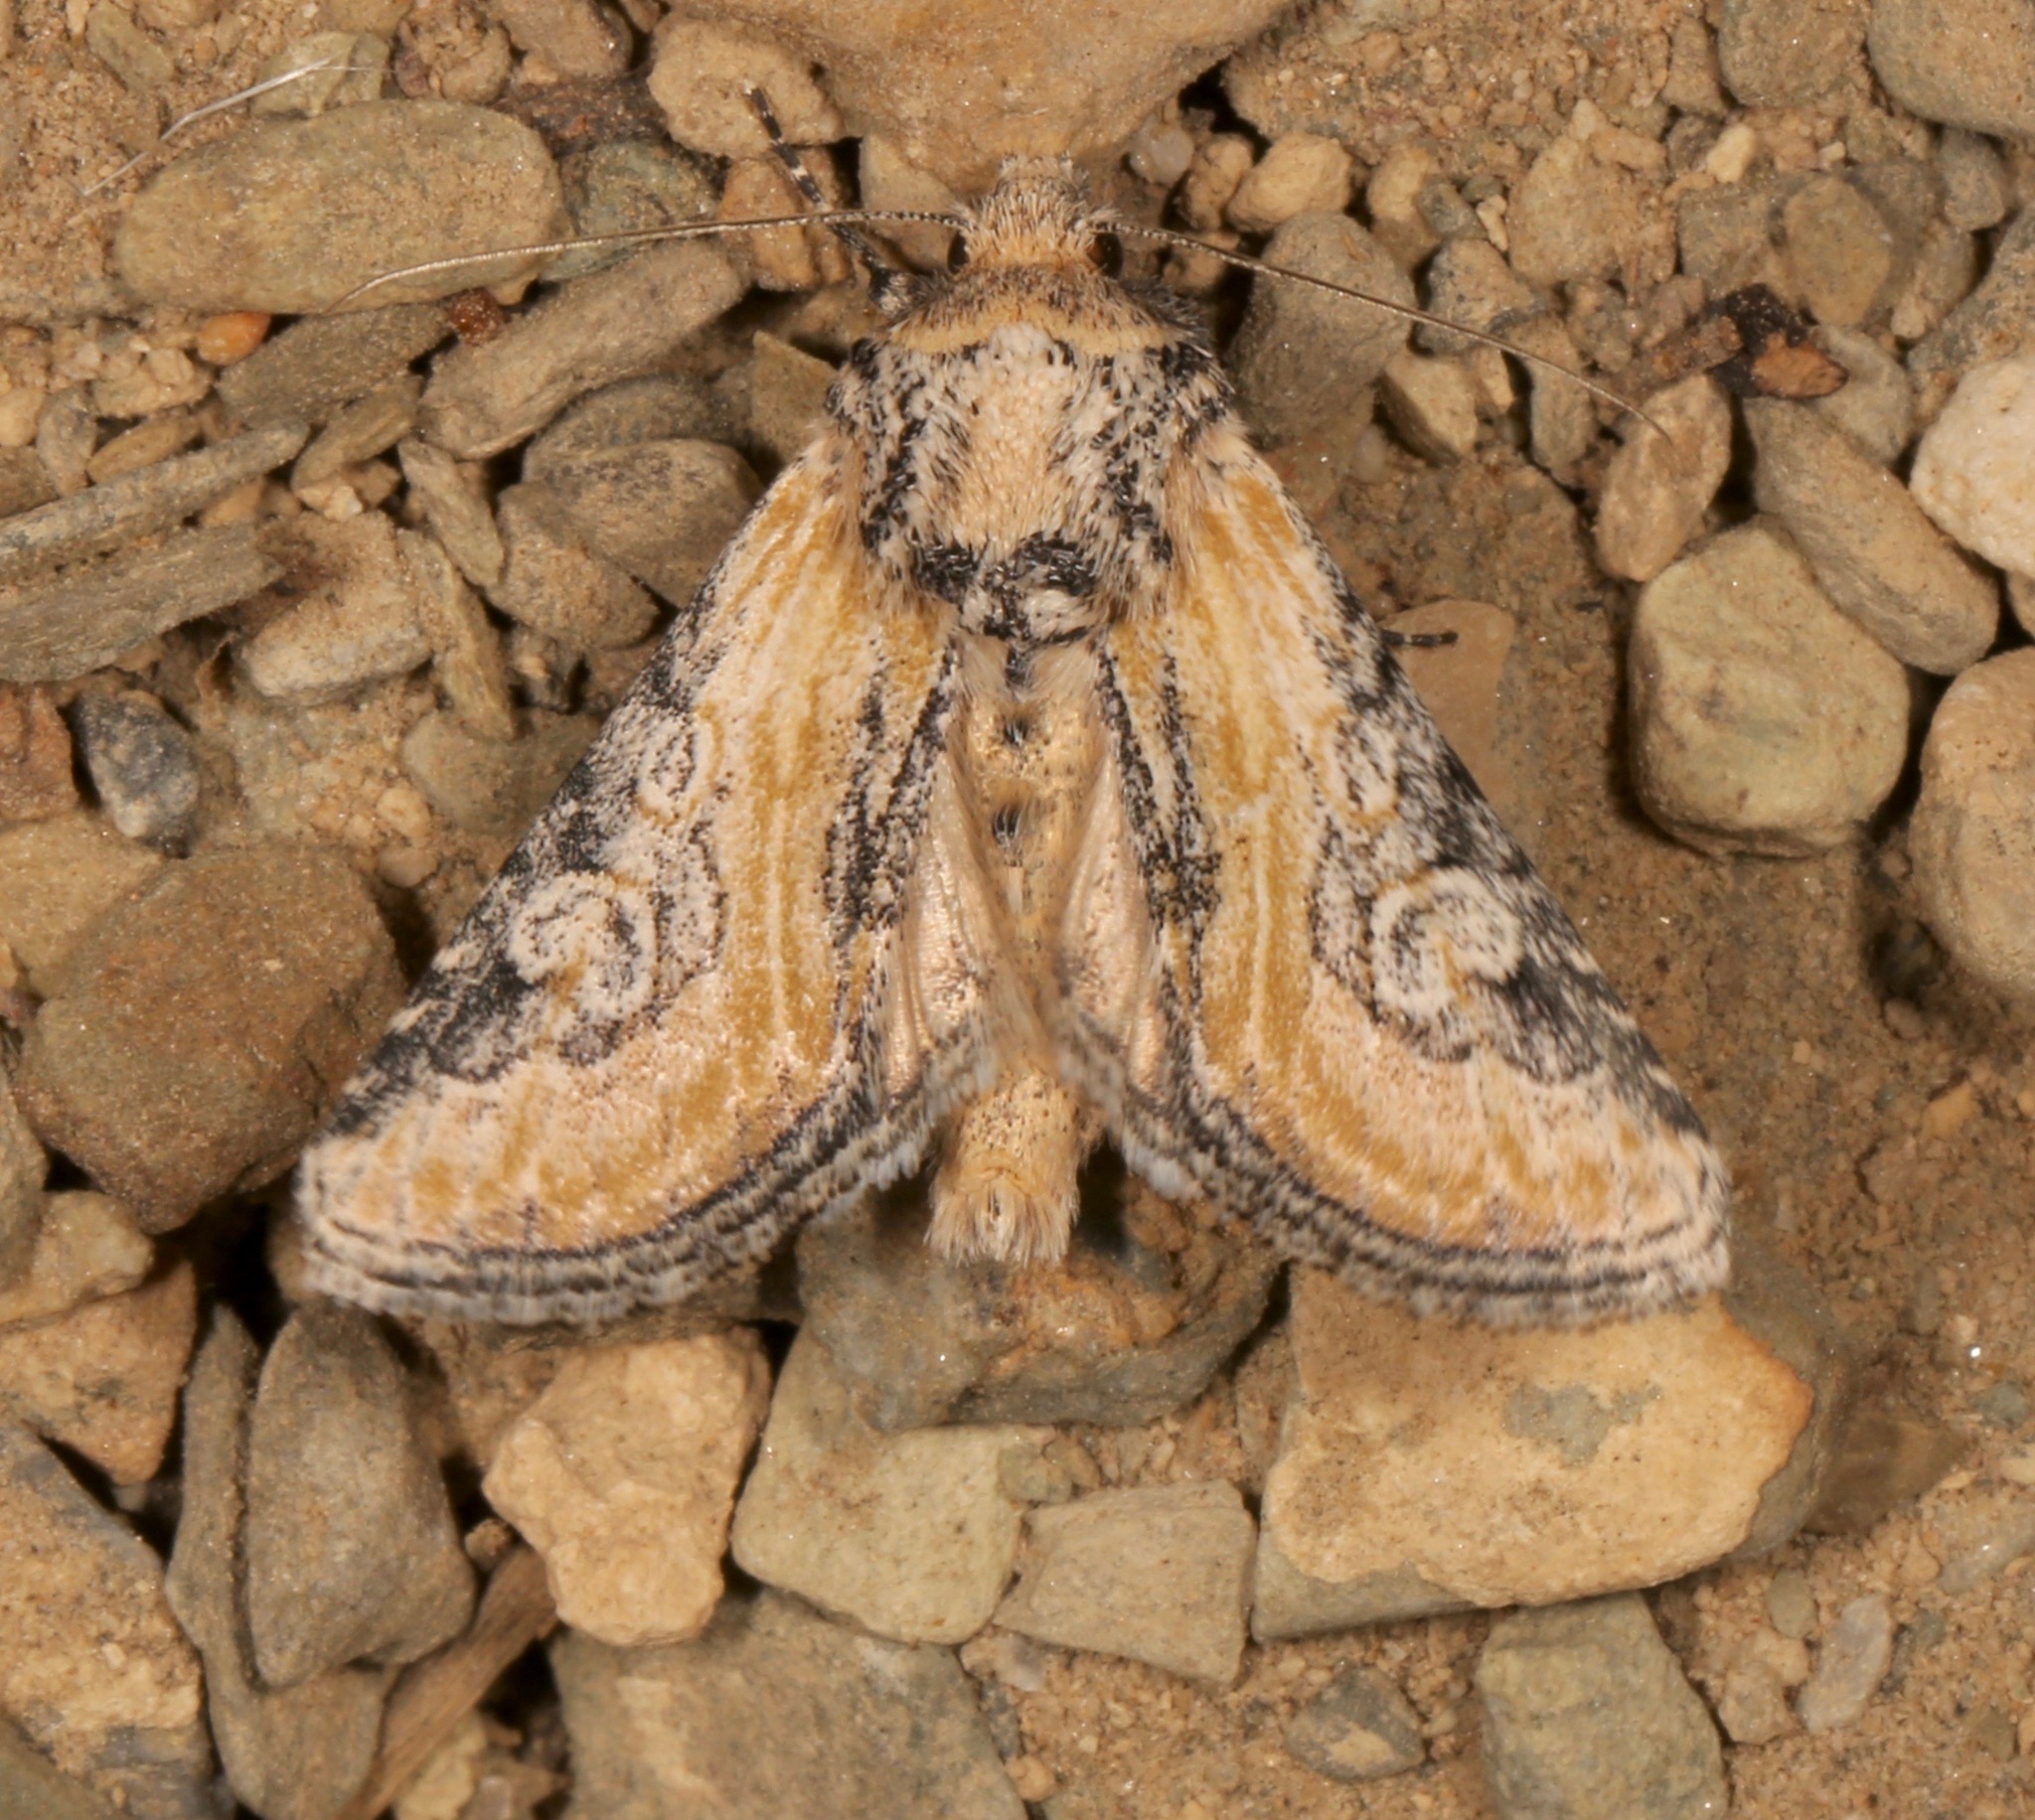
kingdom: Animalia
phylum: Arthropoda
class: Insecta
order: Lepidoptera
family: Noctuidae
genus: Crimona
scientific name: Crimona pallimedia
